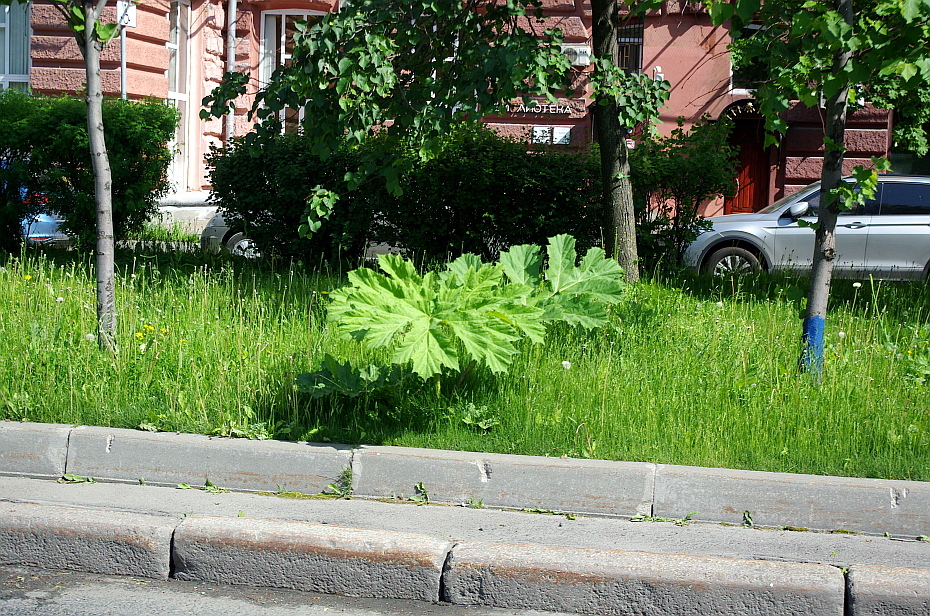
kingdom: Plantae
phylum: Tracheophyta
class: Magnoliopsida
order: Apiales
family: Apiaceae
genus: Heracleum
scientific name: Heracleum sosnowskyi
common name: Sosnowsky's hogweed
